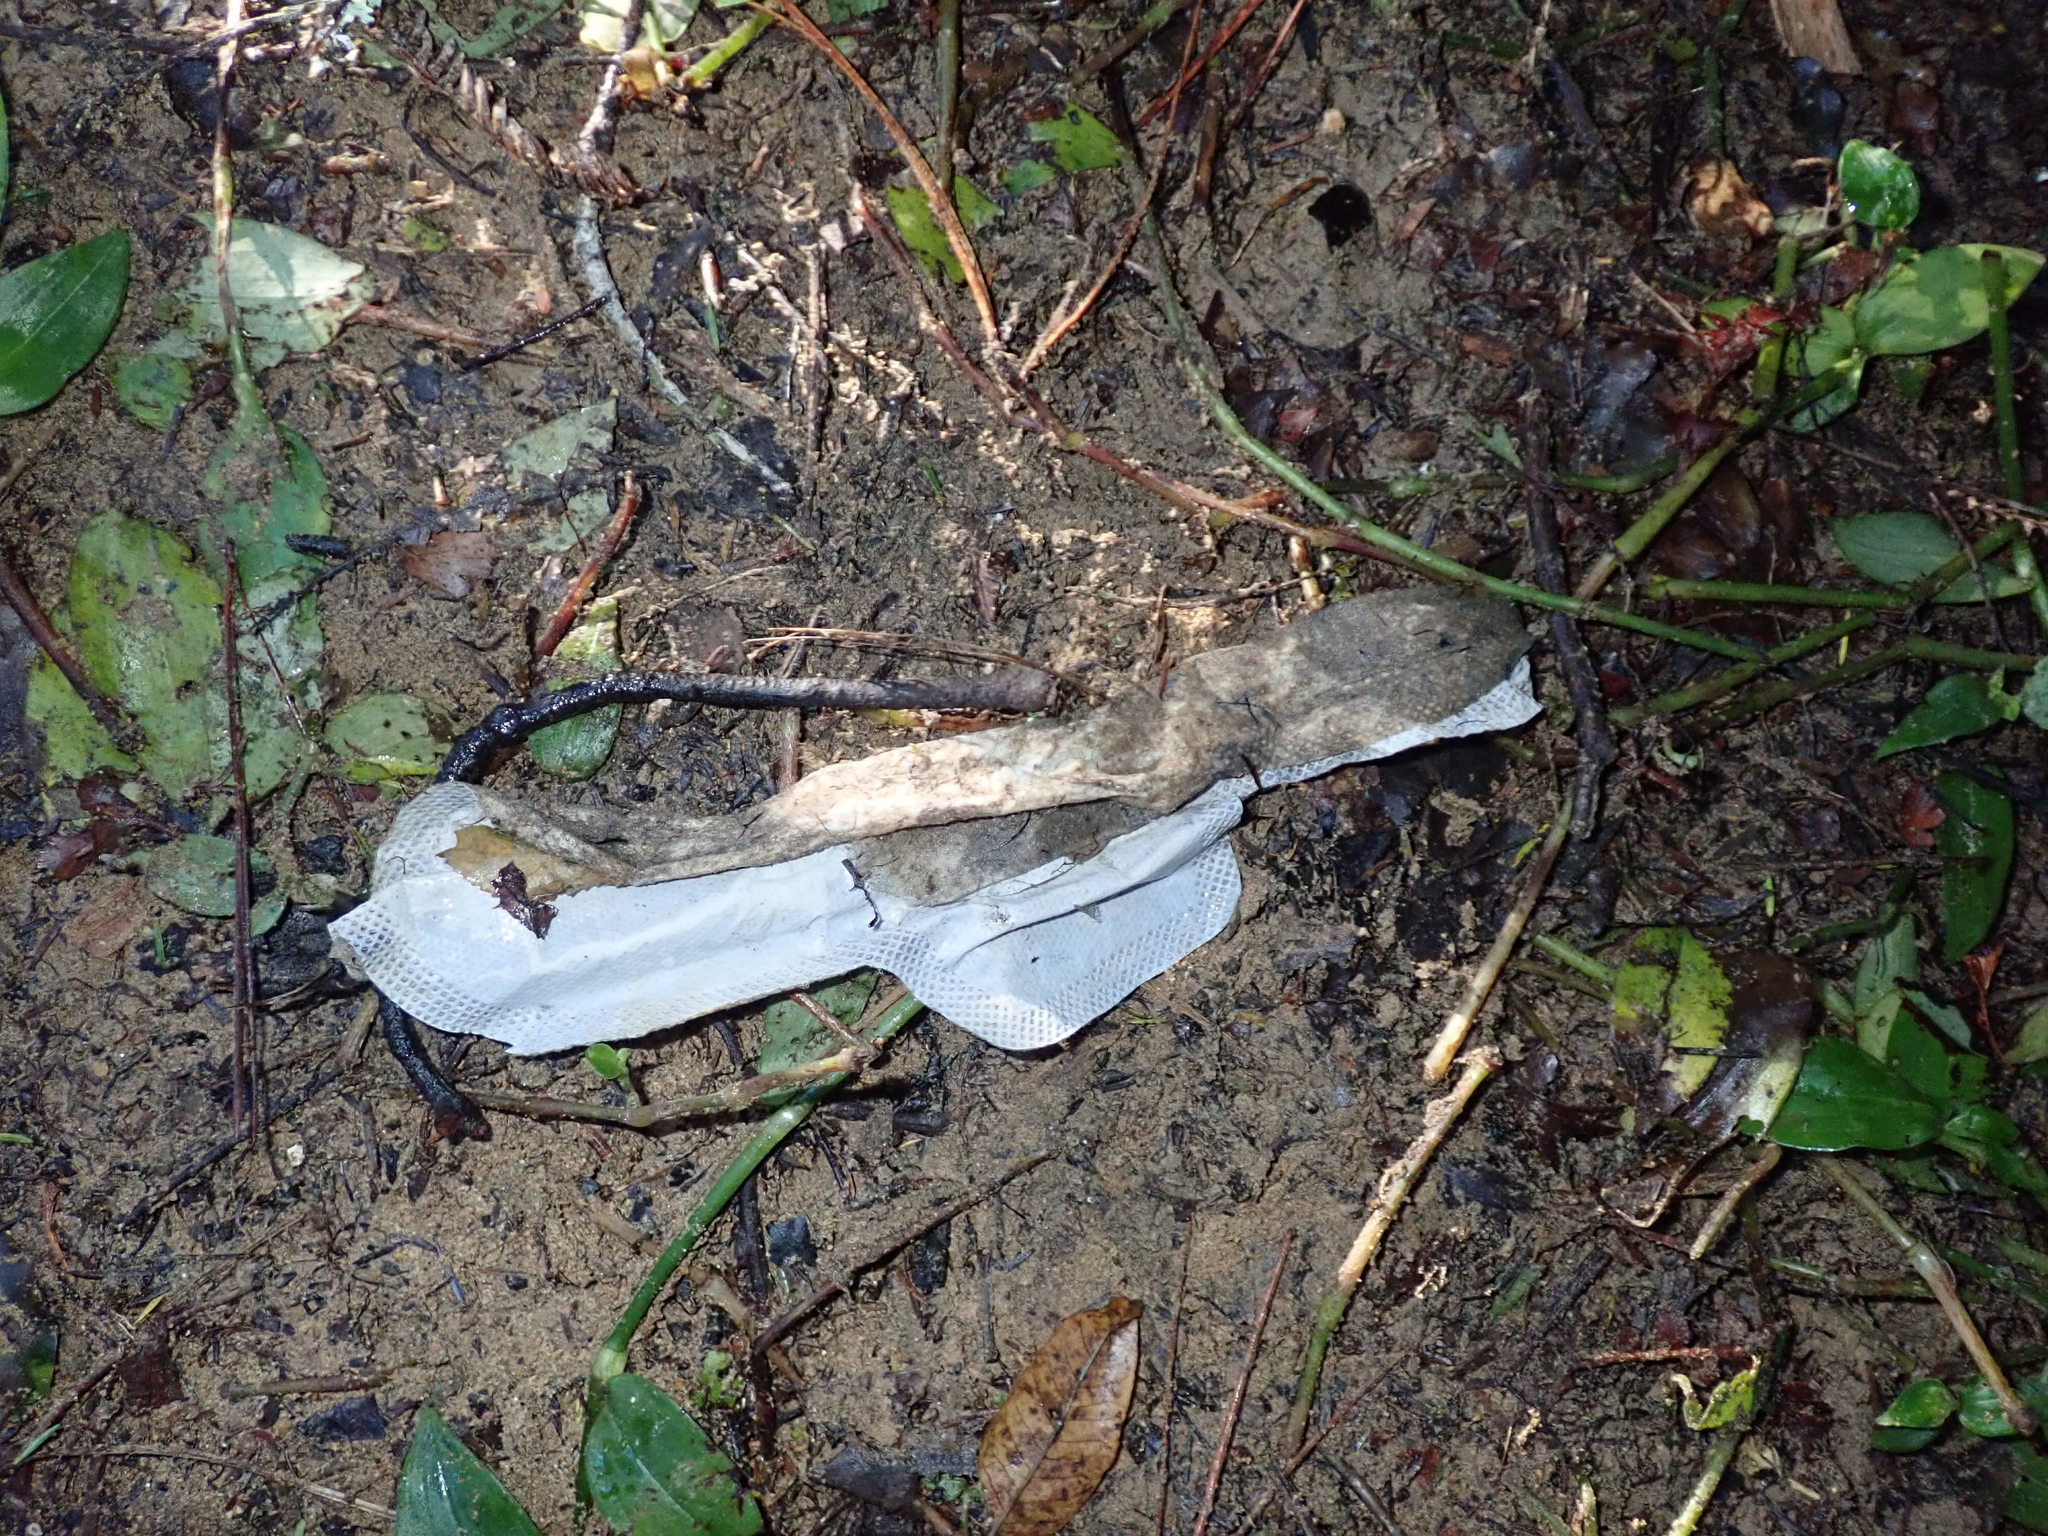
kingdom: Plantae
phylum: Tracheophyta
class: Liliopsida
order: Commelinales
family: Commelinaceae
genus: Tradescantia
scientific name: Tradescantia fluminensis
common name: Wandering-jew
